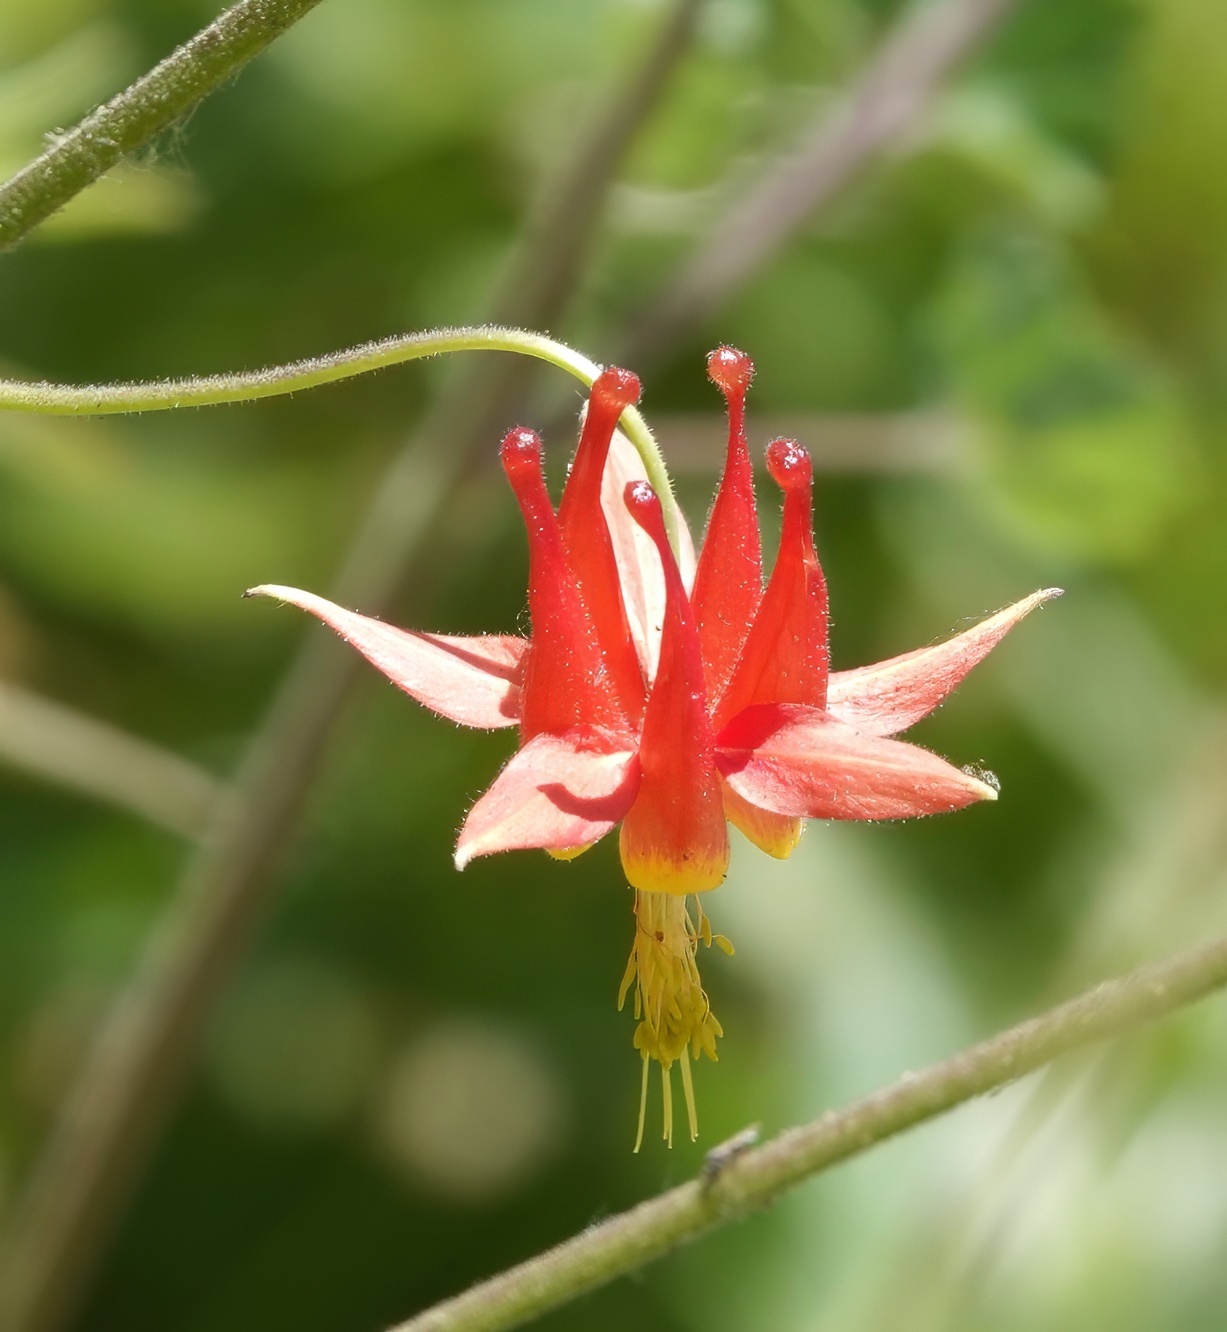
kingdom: Plantae
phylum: Tracheophyta
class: Magnoliopsida
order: Ranunculales
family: Ranunculaceae
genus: Aquilegia
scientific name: Aquilegia formosa
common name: Sitka columbine
